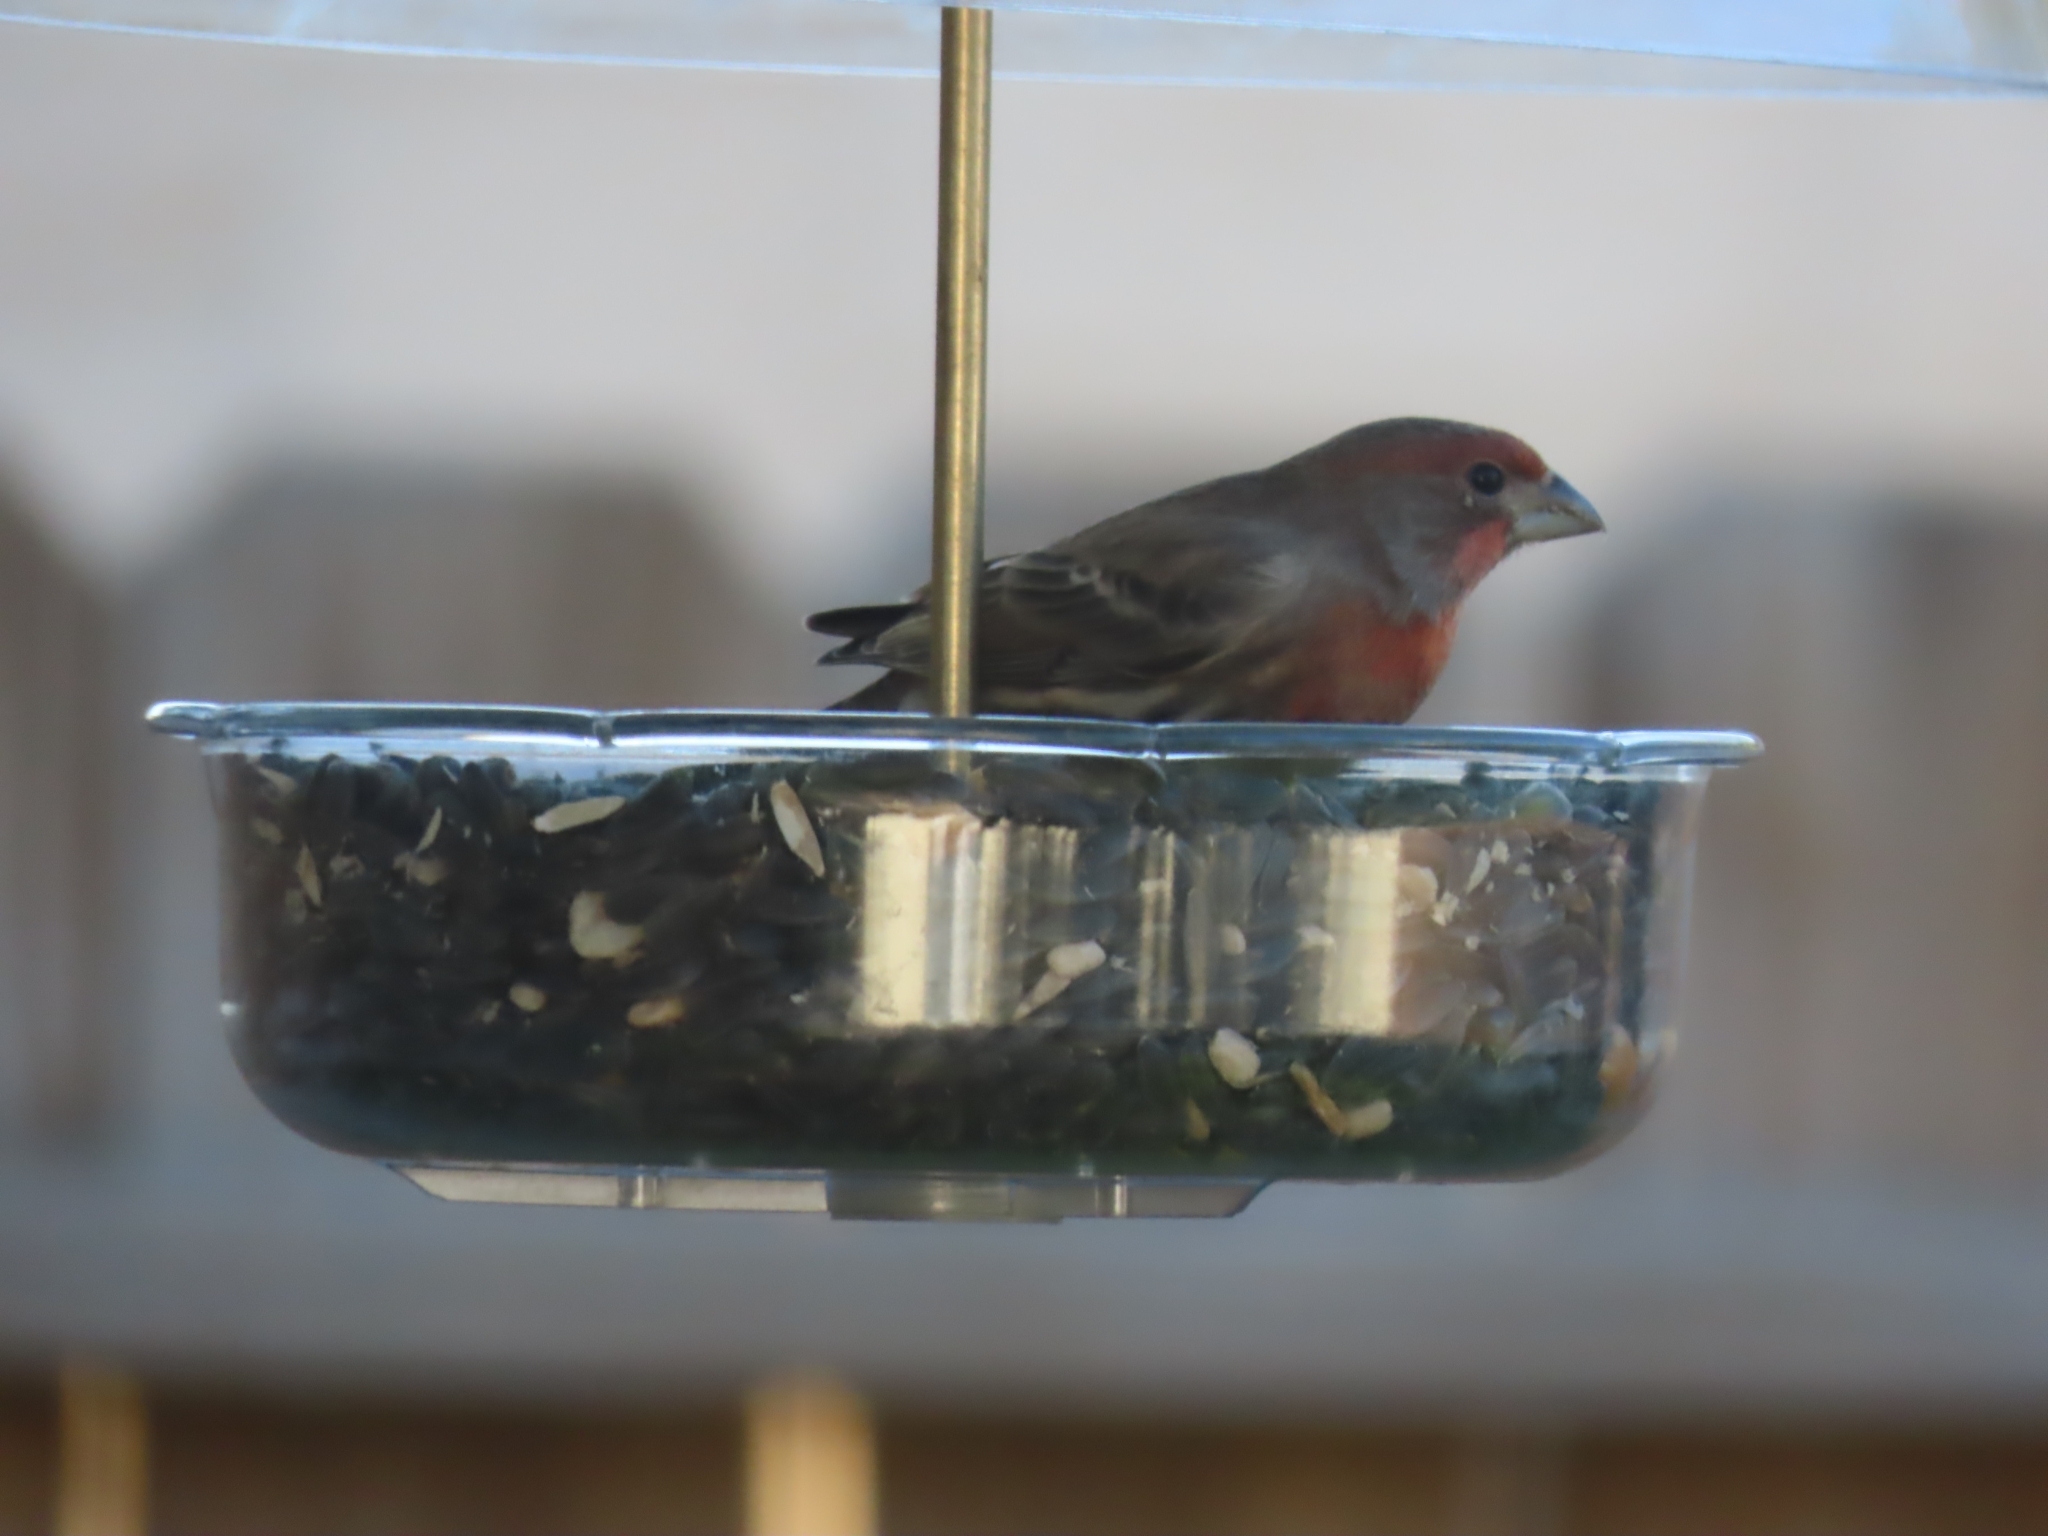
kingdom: Animalia
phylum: Chordata
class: Aves
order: Passeriformes
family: Fringillidae
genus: Haemorhous
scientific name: Haemorhous mexicanus
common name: House finch
